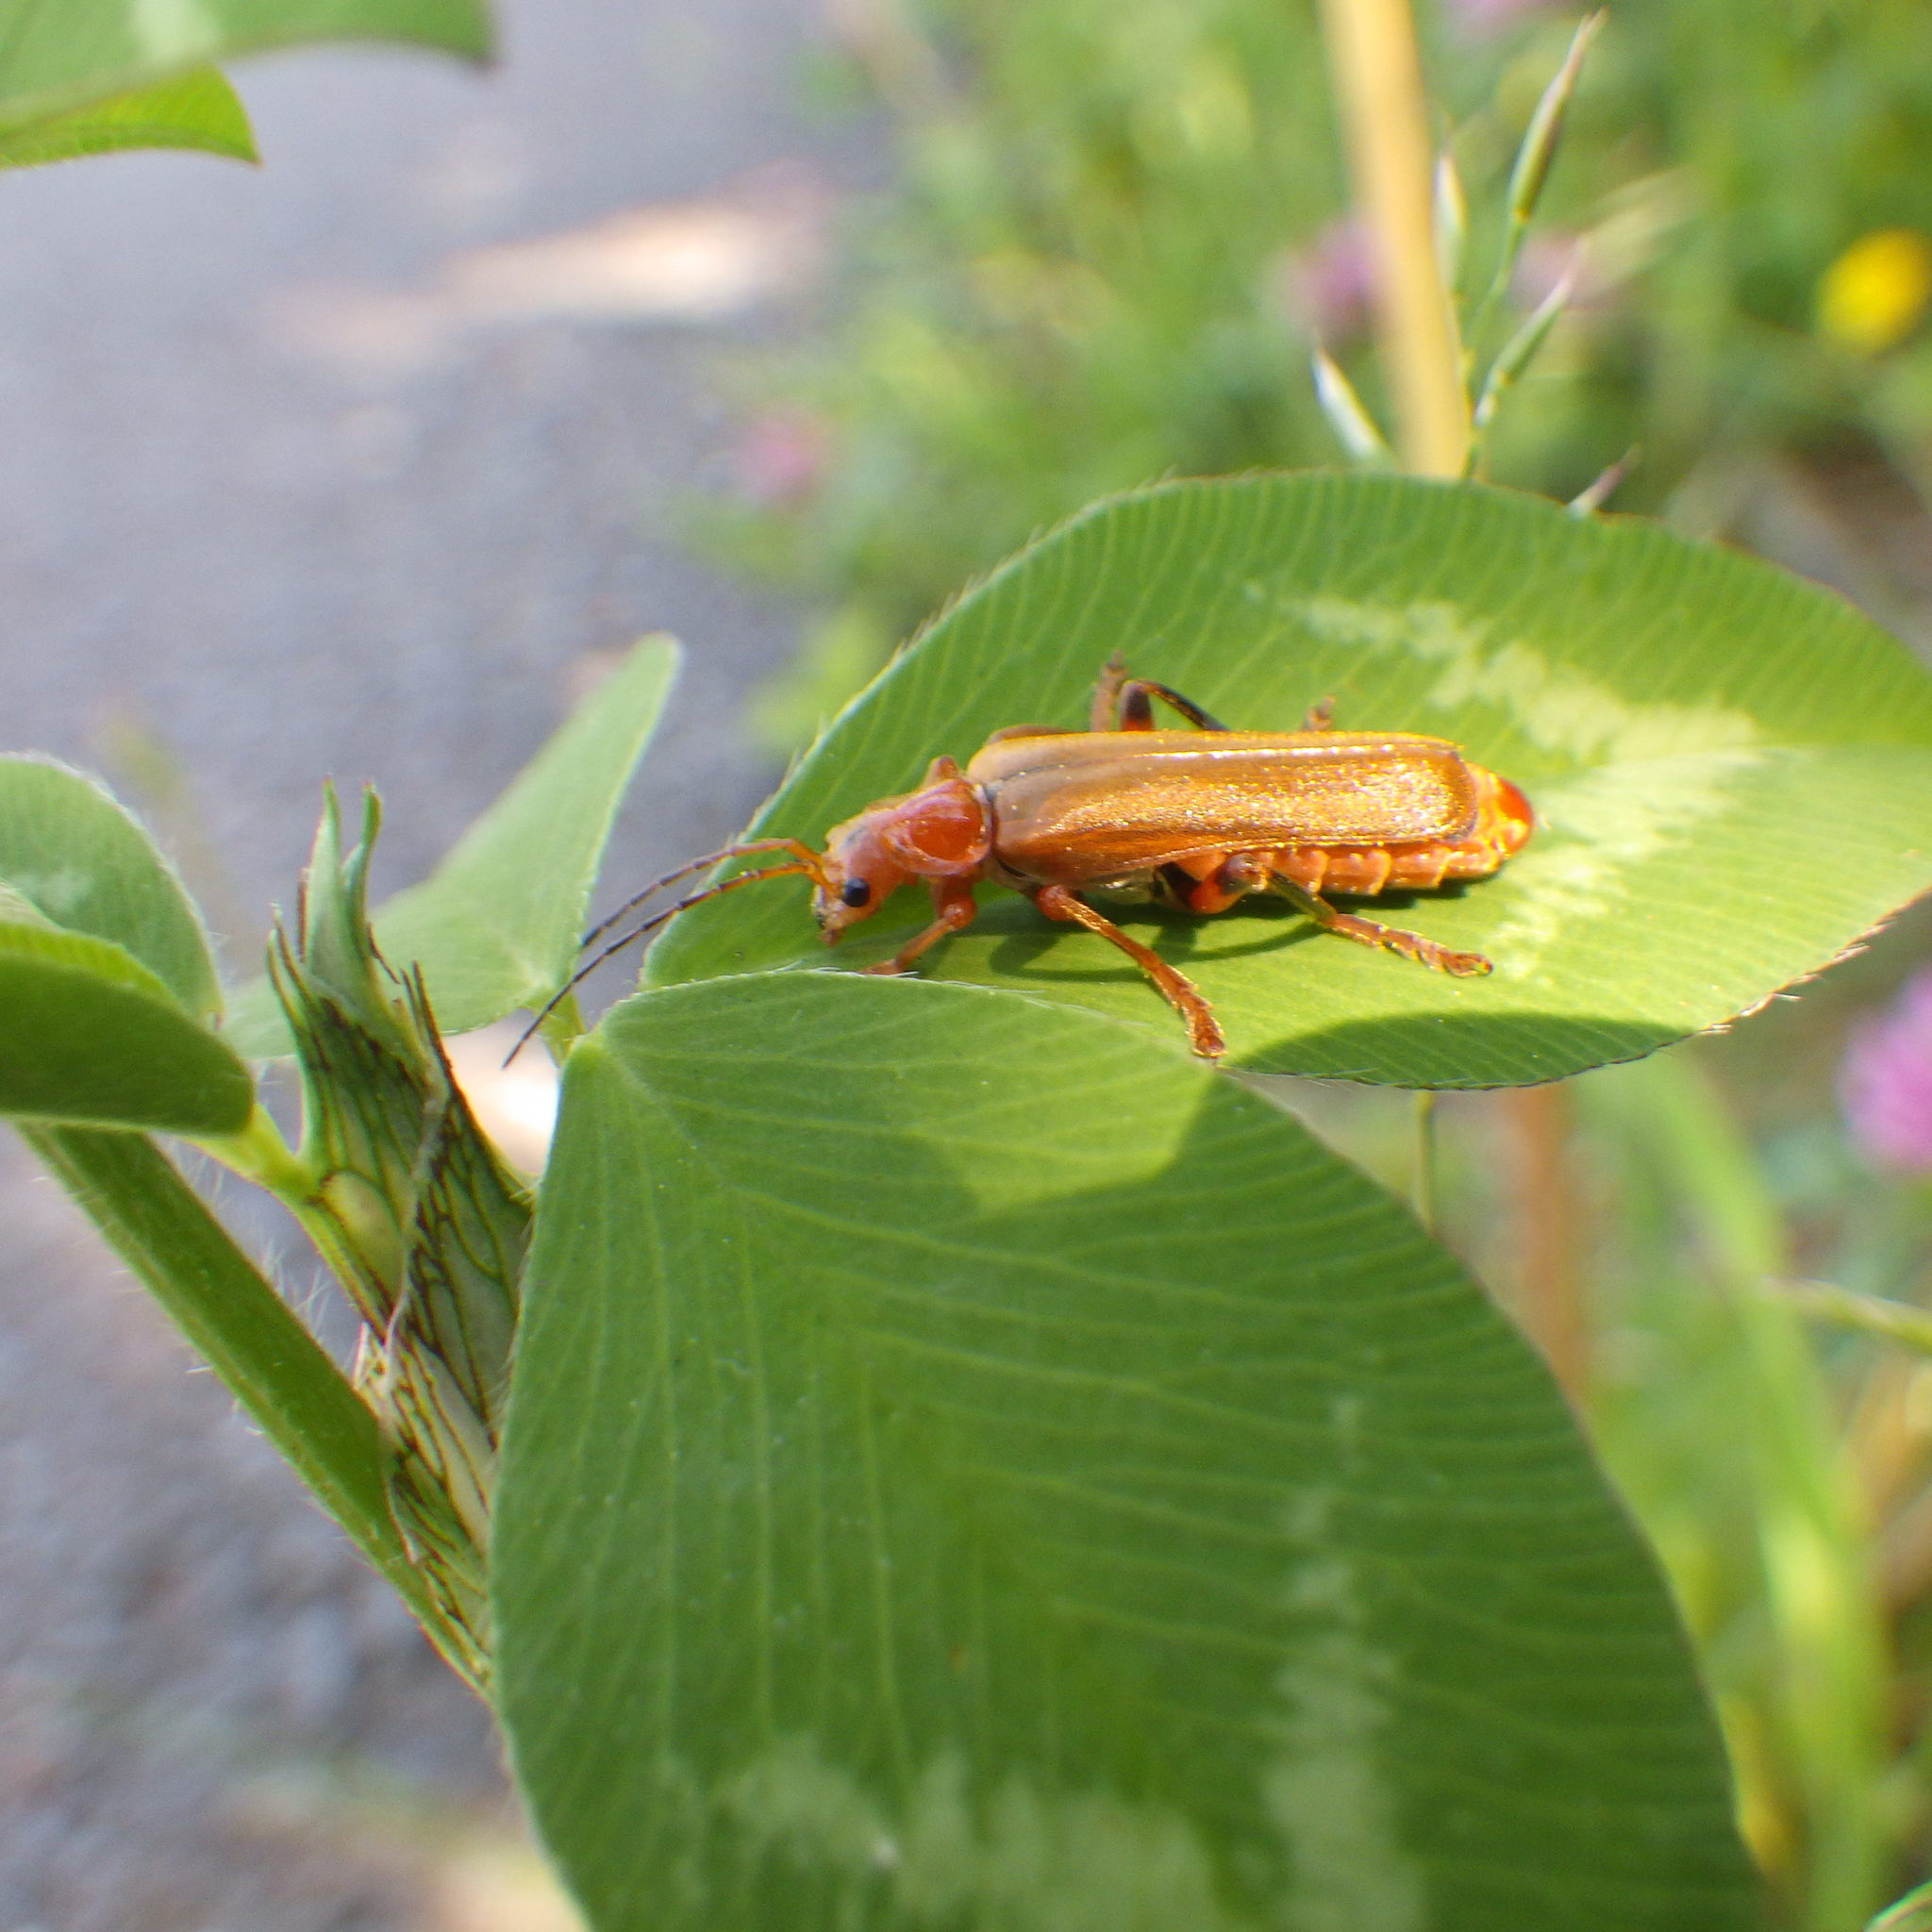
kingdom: Animalia
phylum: Arthropoda
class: Insecta
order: Coleoptera
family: Cantharidae
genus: Cantharis
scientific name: Cantharis livida
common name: Livid soldier beetle
